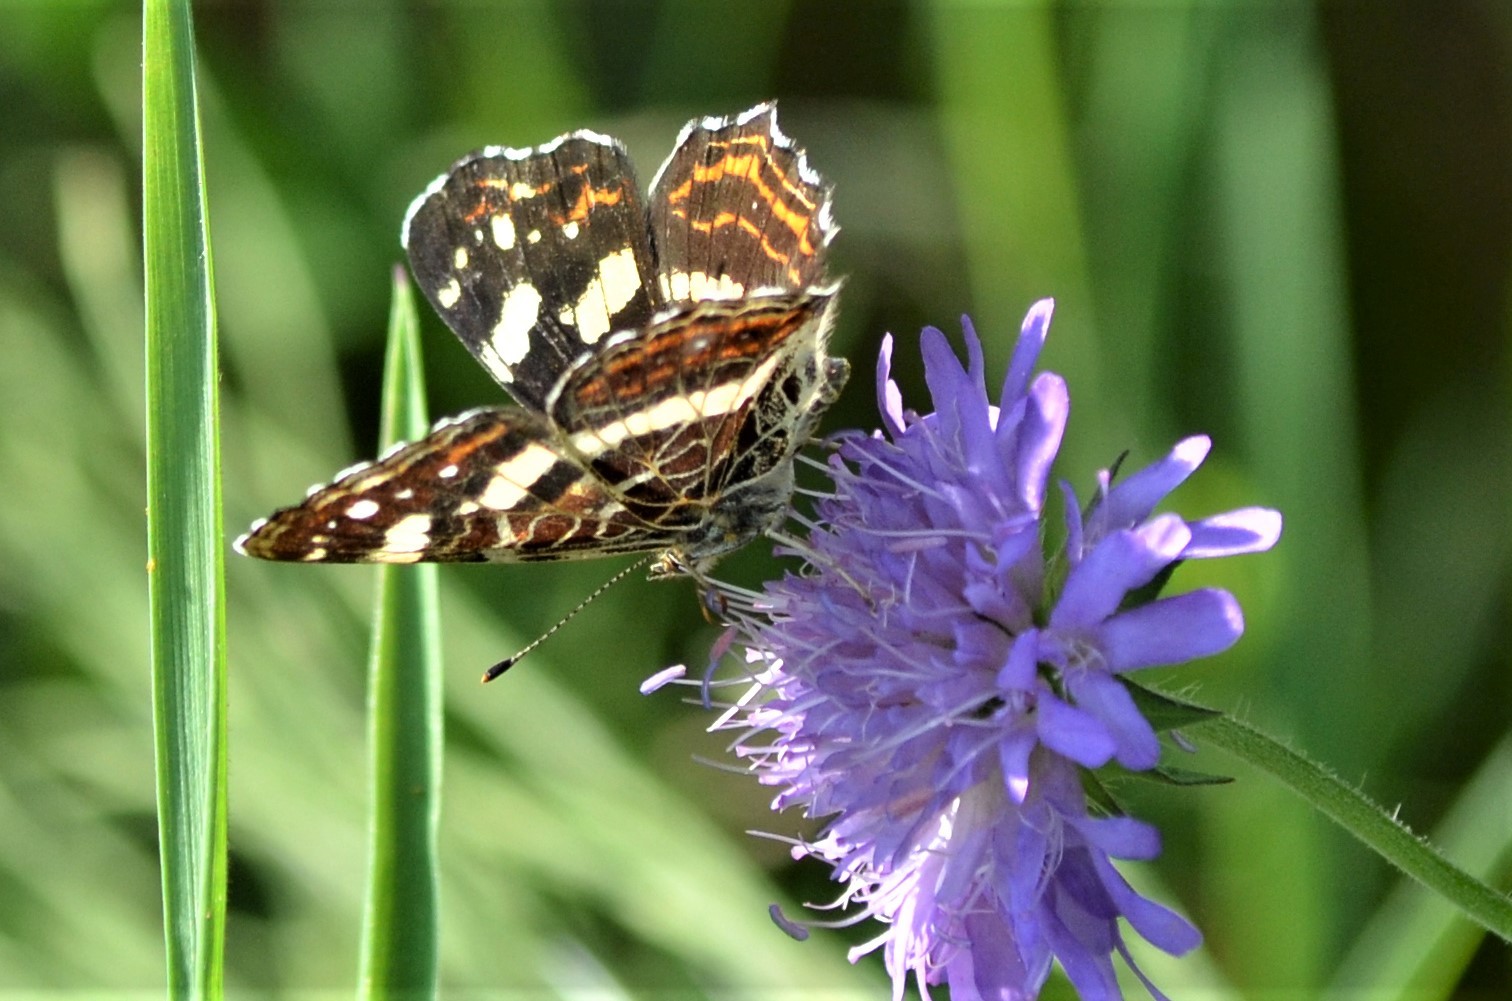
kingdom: Animalia
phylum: Arthropoda
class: Insecta
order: Lepidoptera
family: Nymphalidae
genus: Araschnia
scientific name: Araschnia levana
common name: Map butterfly
